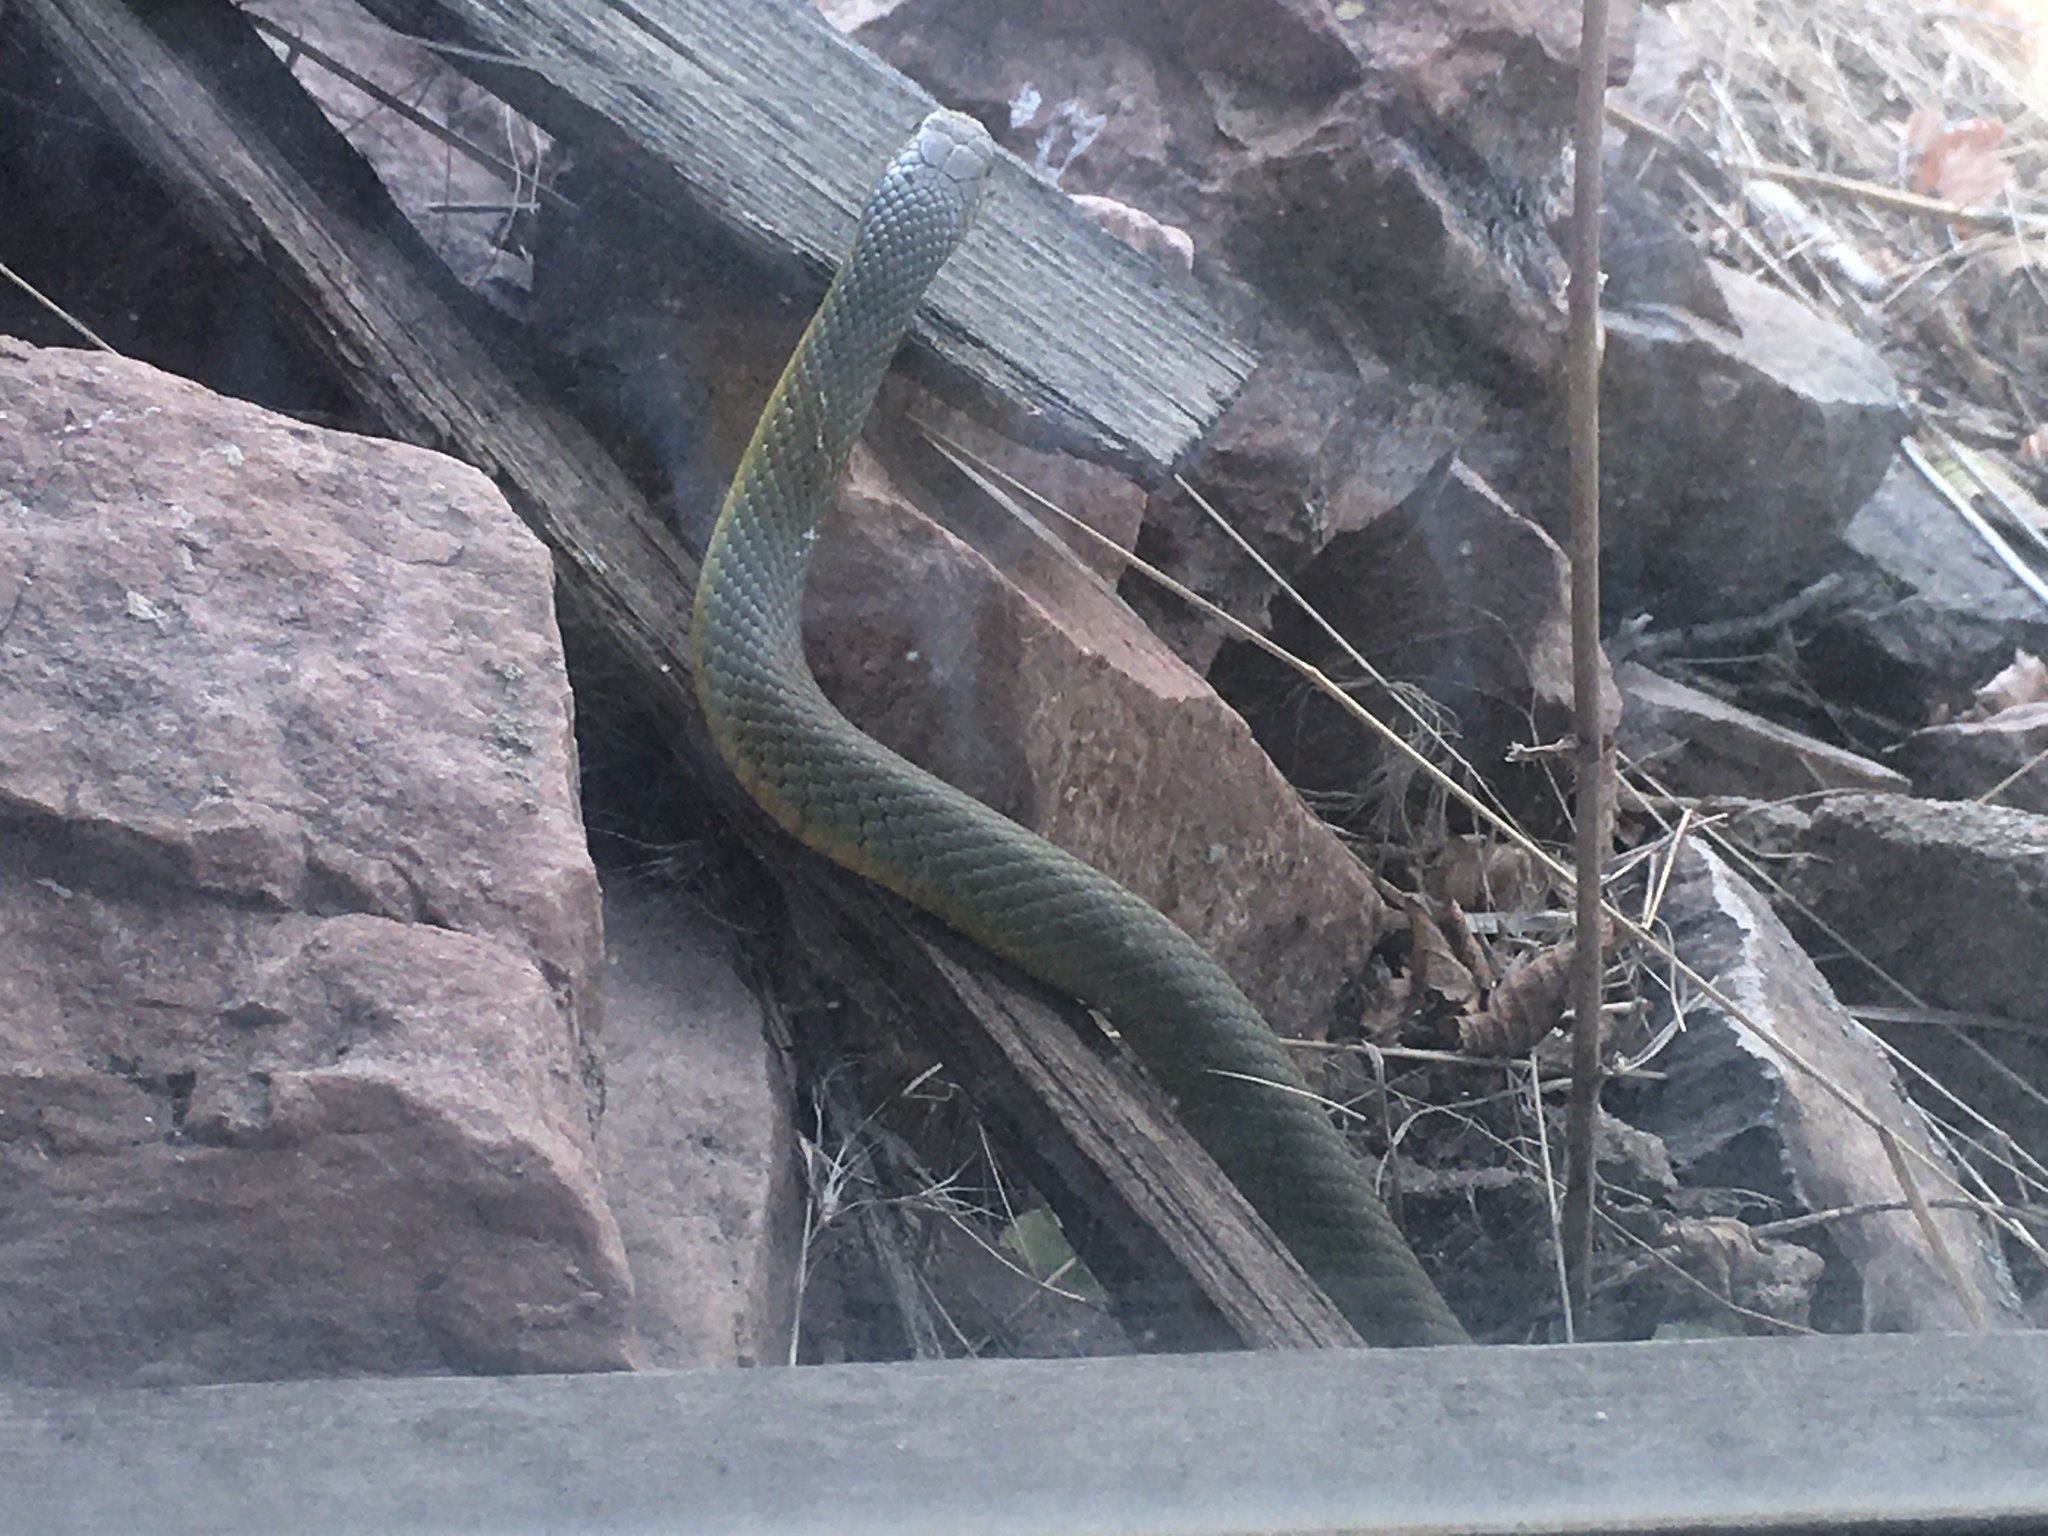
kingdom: Animalia
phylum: Chordata
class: Squamata
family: Colubridae
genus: Coluber
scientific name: Coluber constrictor
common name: Eastern racer
